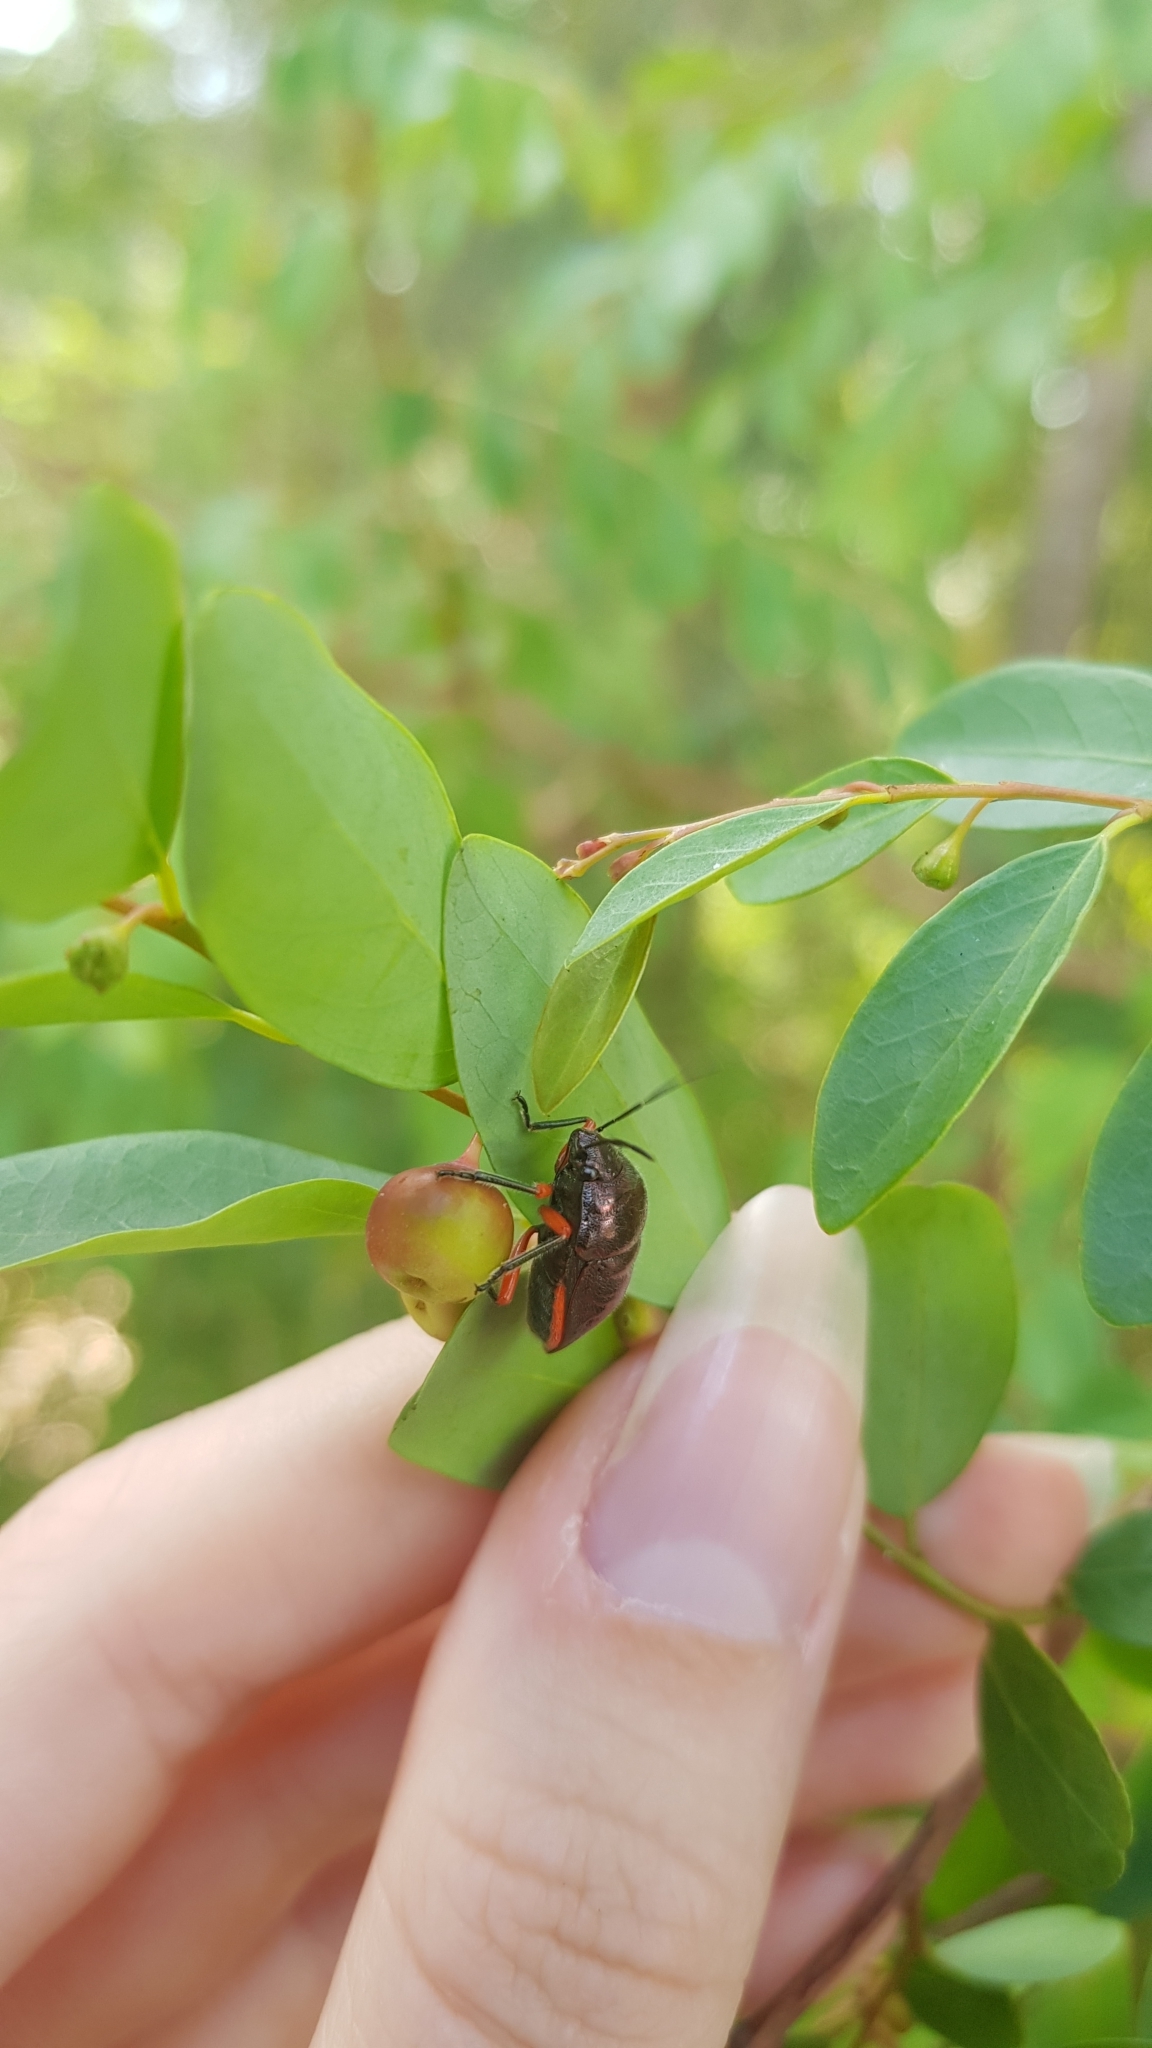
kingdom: Animalia
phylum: Arthropoda
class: Insecta
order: Hemiptera
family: Scutelleridae
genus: Lampromicra
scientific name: Lampromicra
